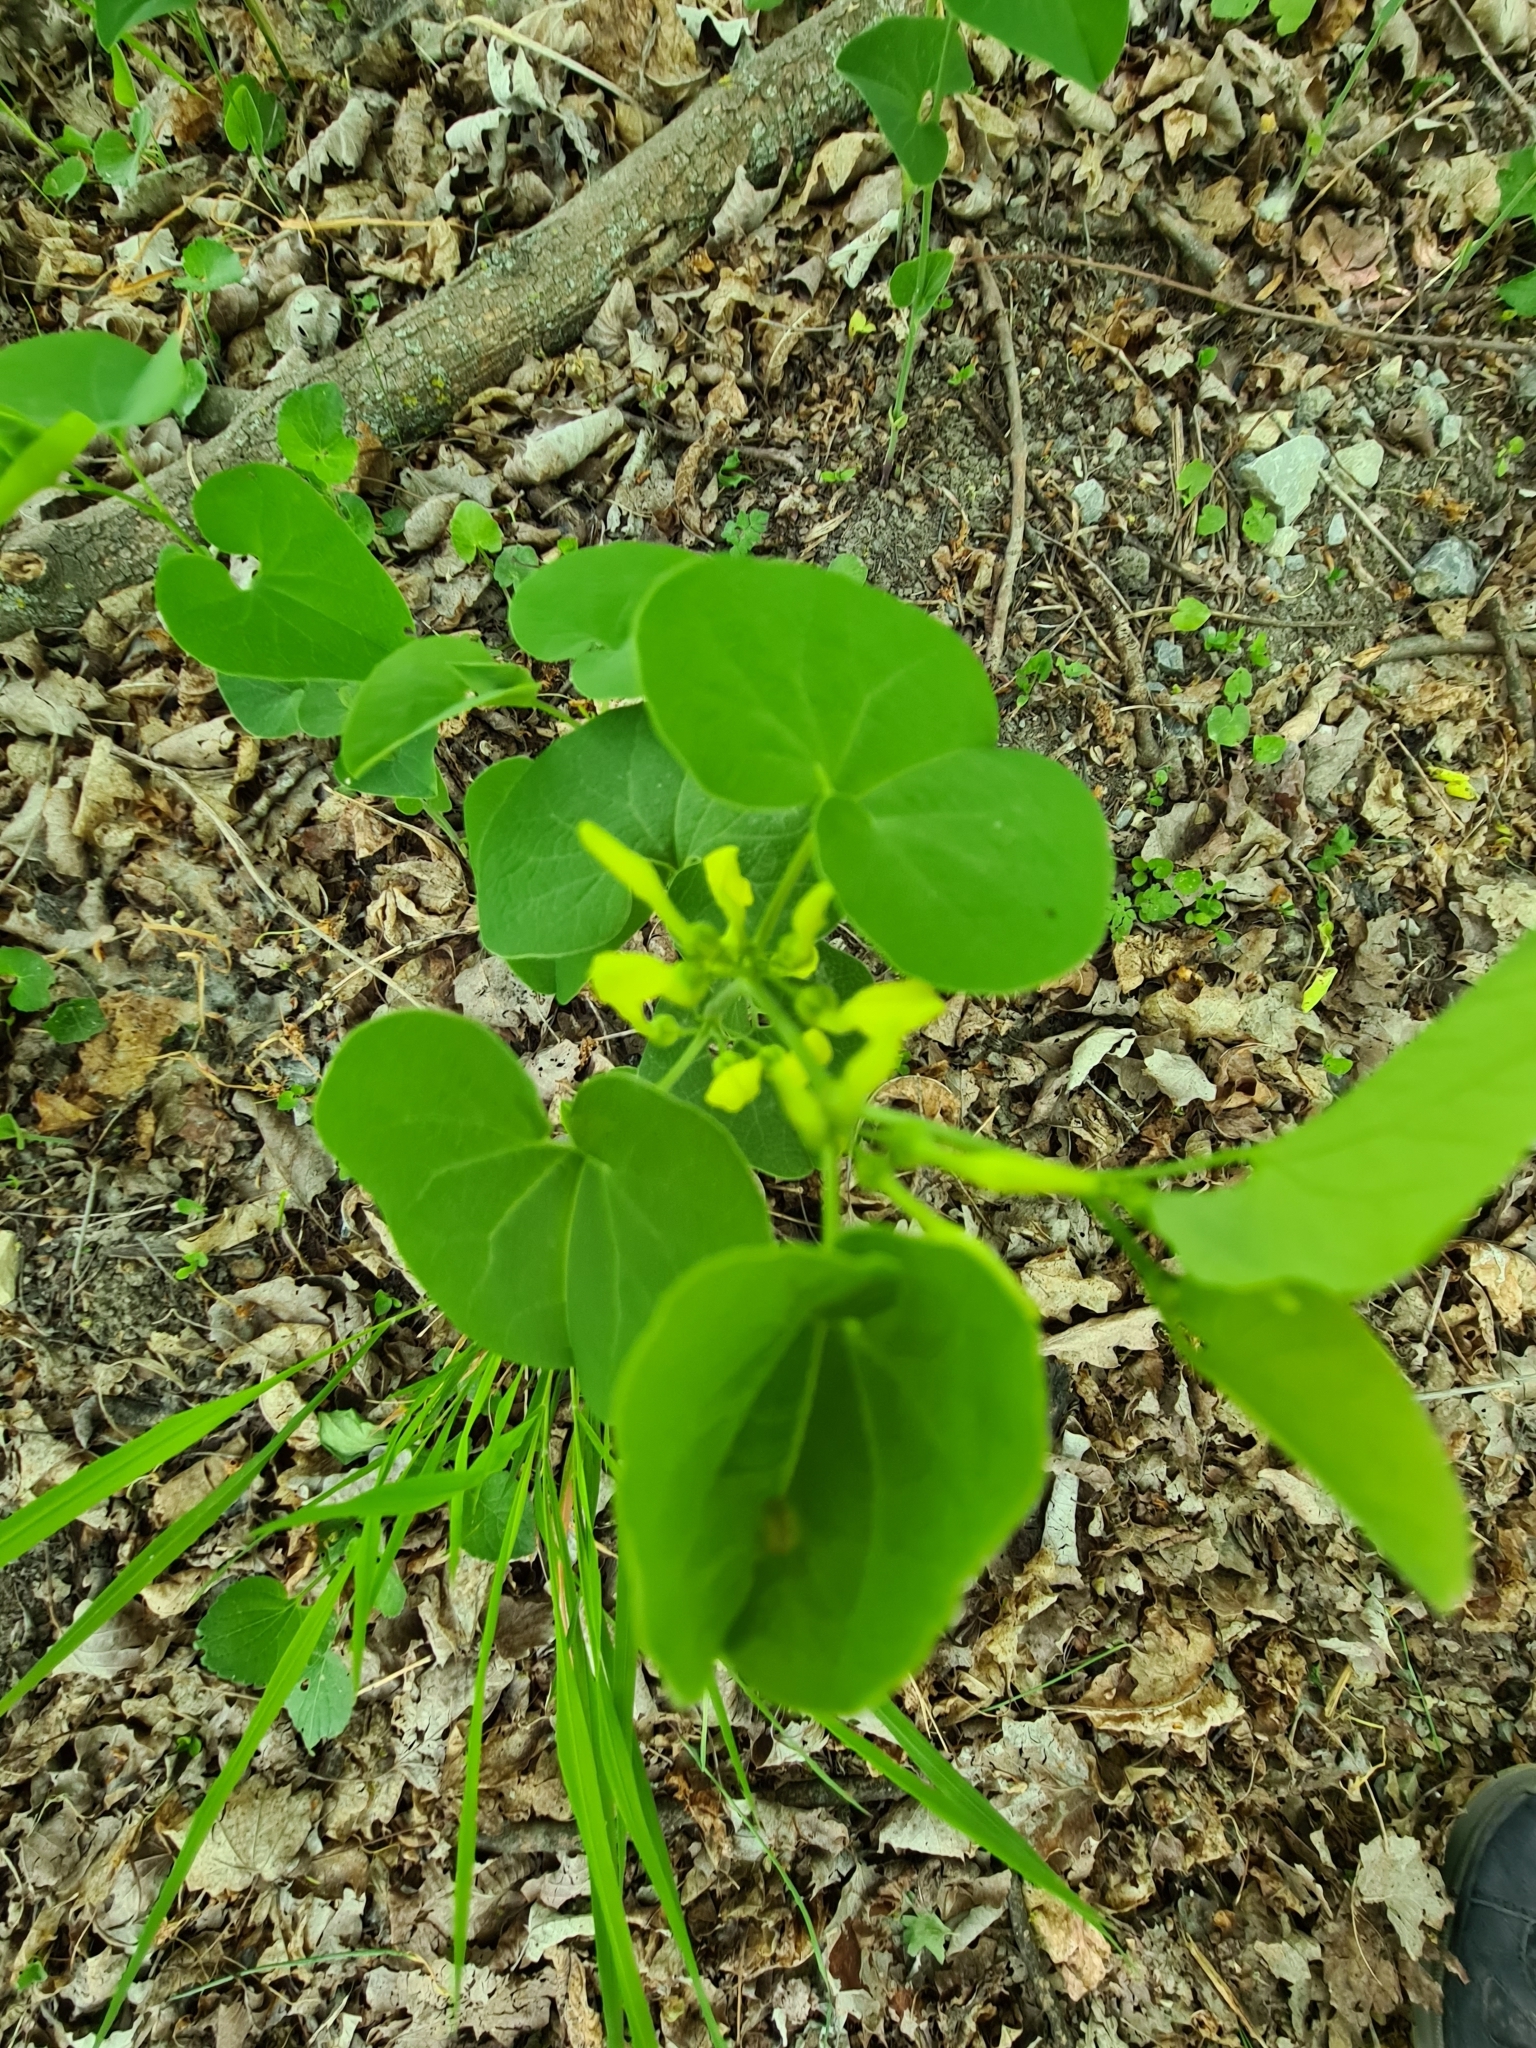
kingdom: Plantae
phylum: Tracheophyta
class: Magnoliopsida
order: Piperales
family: Aristolochiaceae
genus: Aristolochia
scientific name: Aristolochia clematitis
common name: Birthwort
